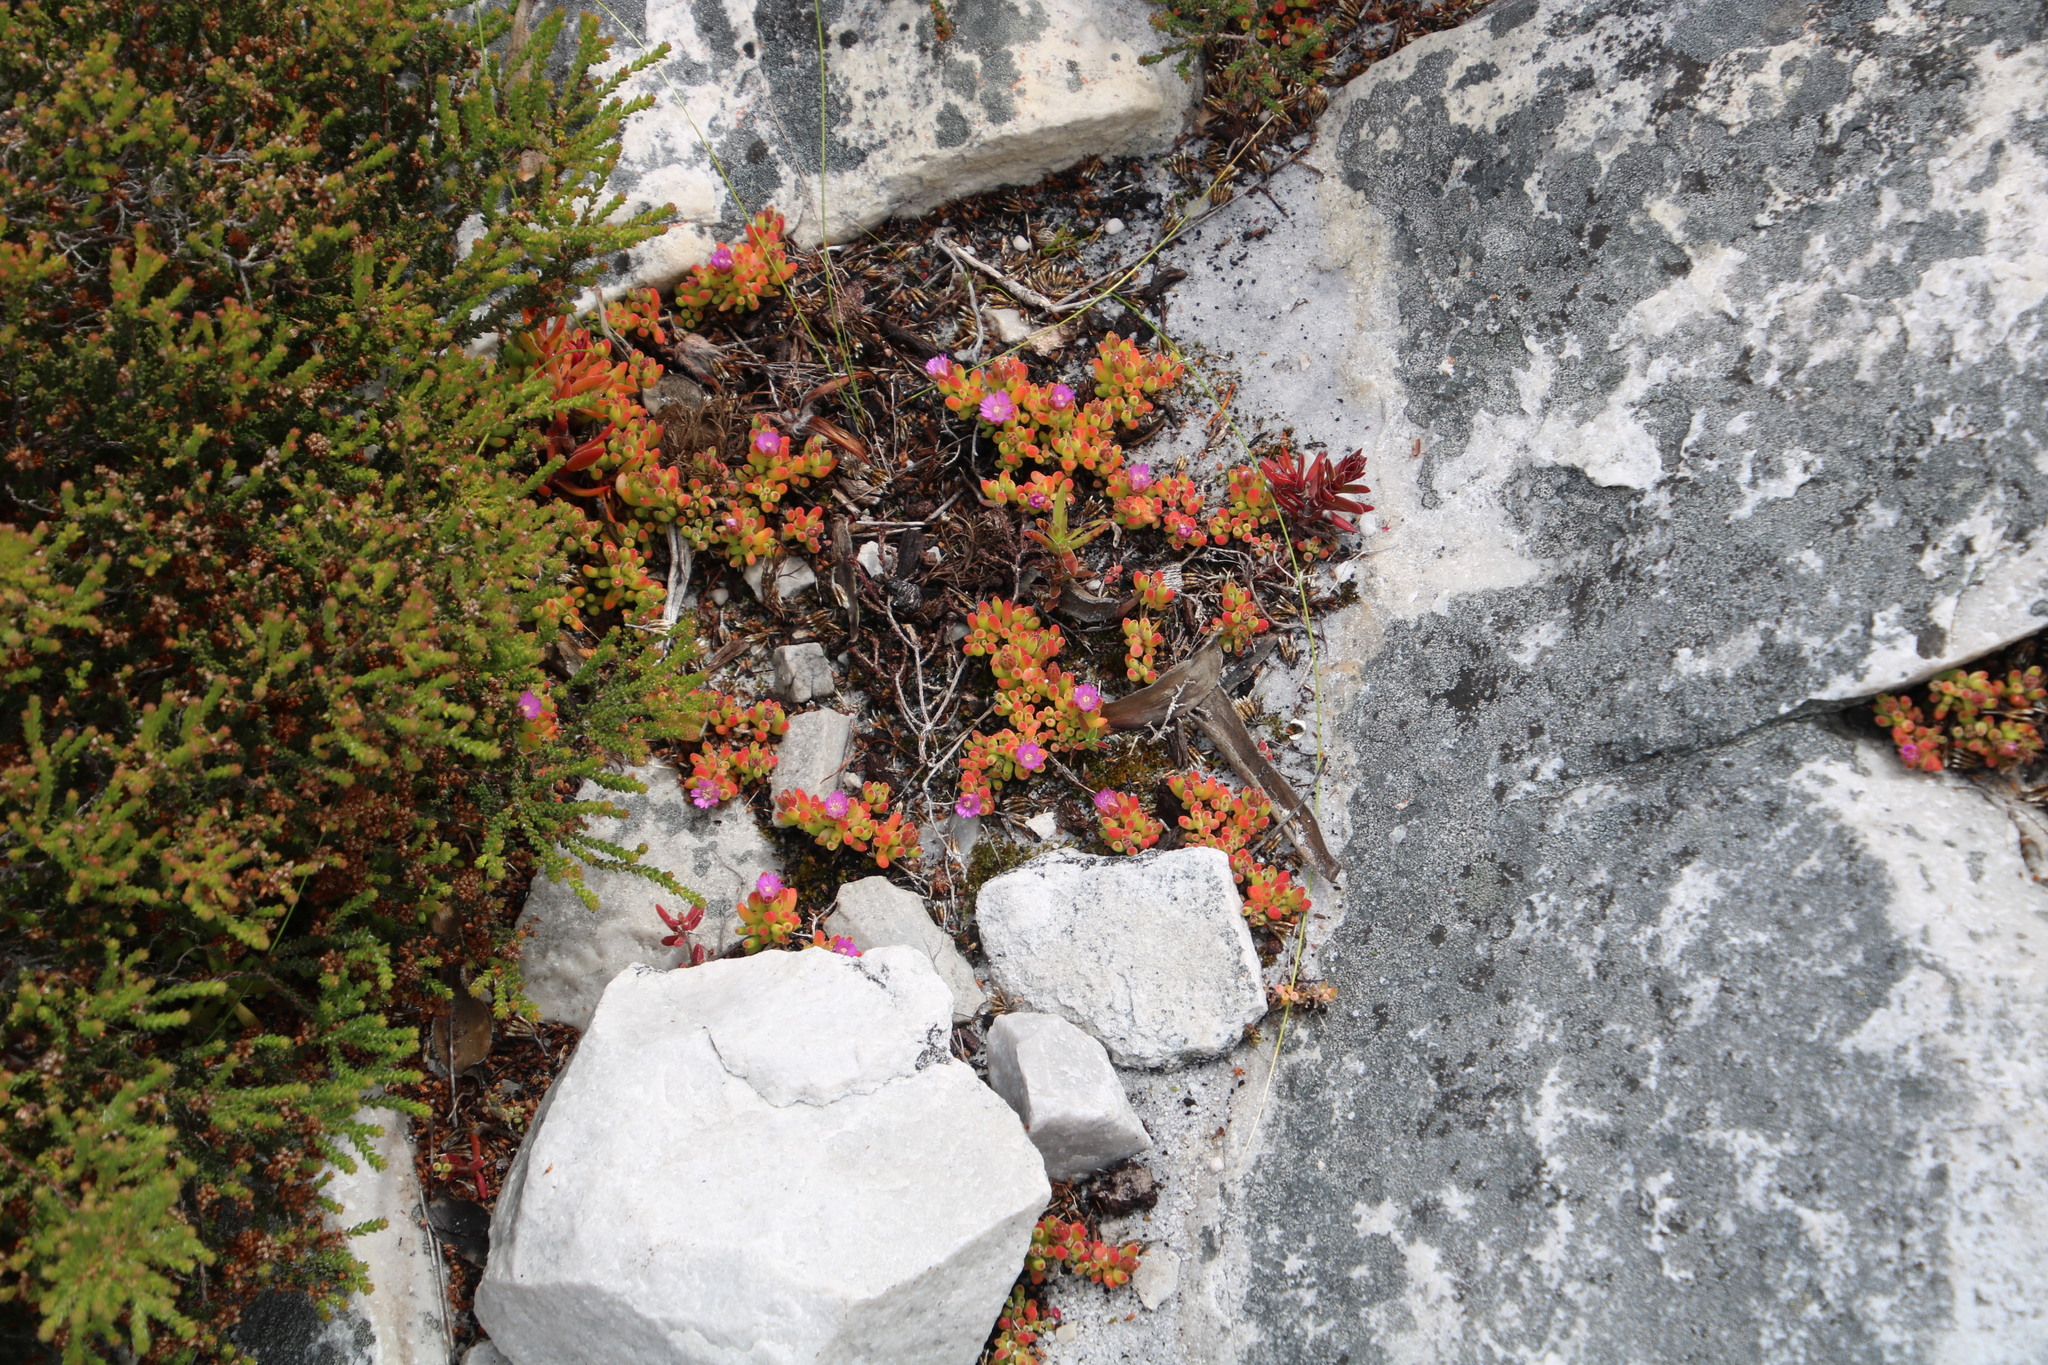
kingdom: Plantae
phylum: Tracheophyta
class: Magnoliopsida
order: Caryophyllales
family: Aizoaceae
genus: Drosanthemum
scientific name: Drosanthemum stokoei
